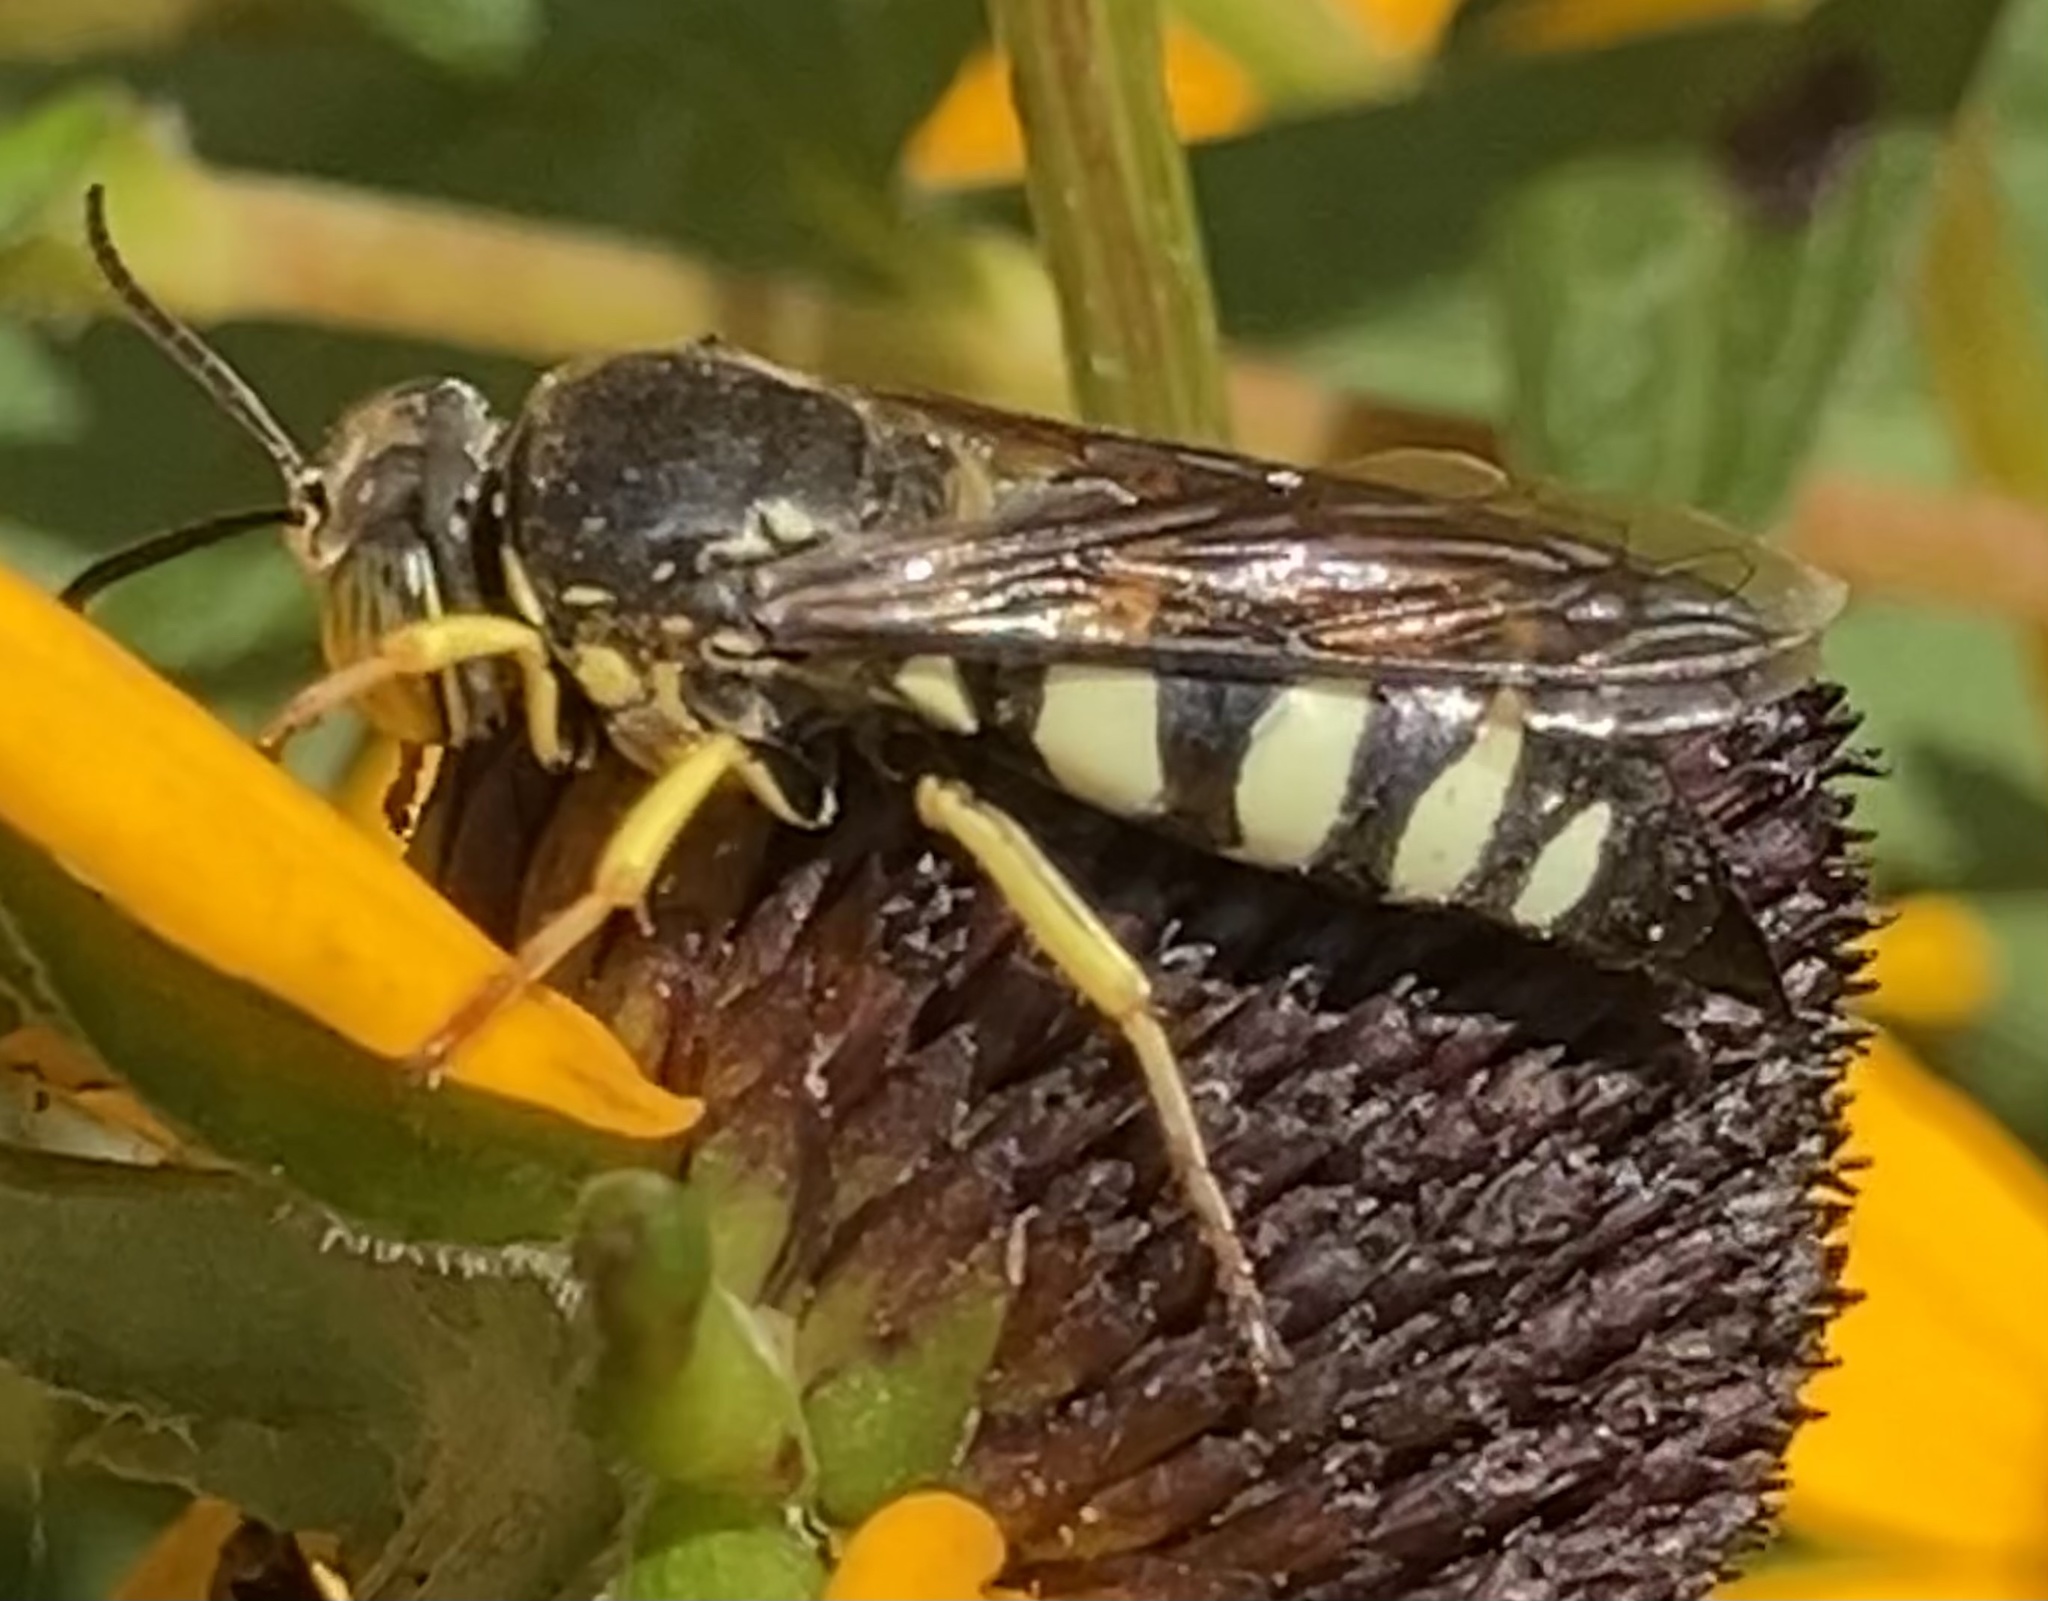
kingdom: Animalia
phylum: Arthropoda
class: Insecta
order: Hymenoptera
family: Crabronidae
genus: Bicyrtes
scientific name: Bicyrtes quadrifasciatus
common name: Four-banded stink bug hunter wasp
